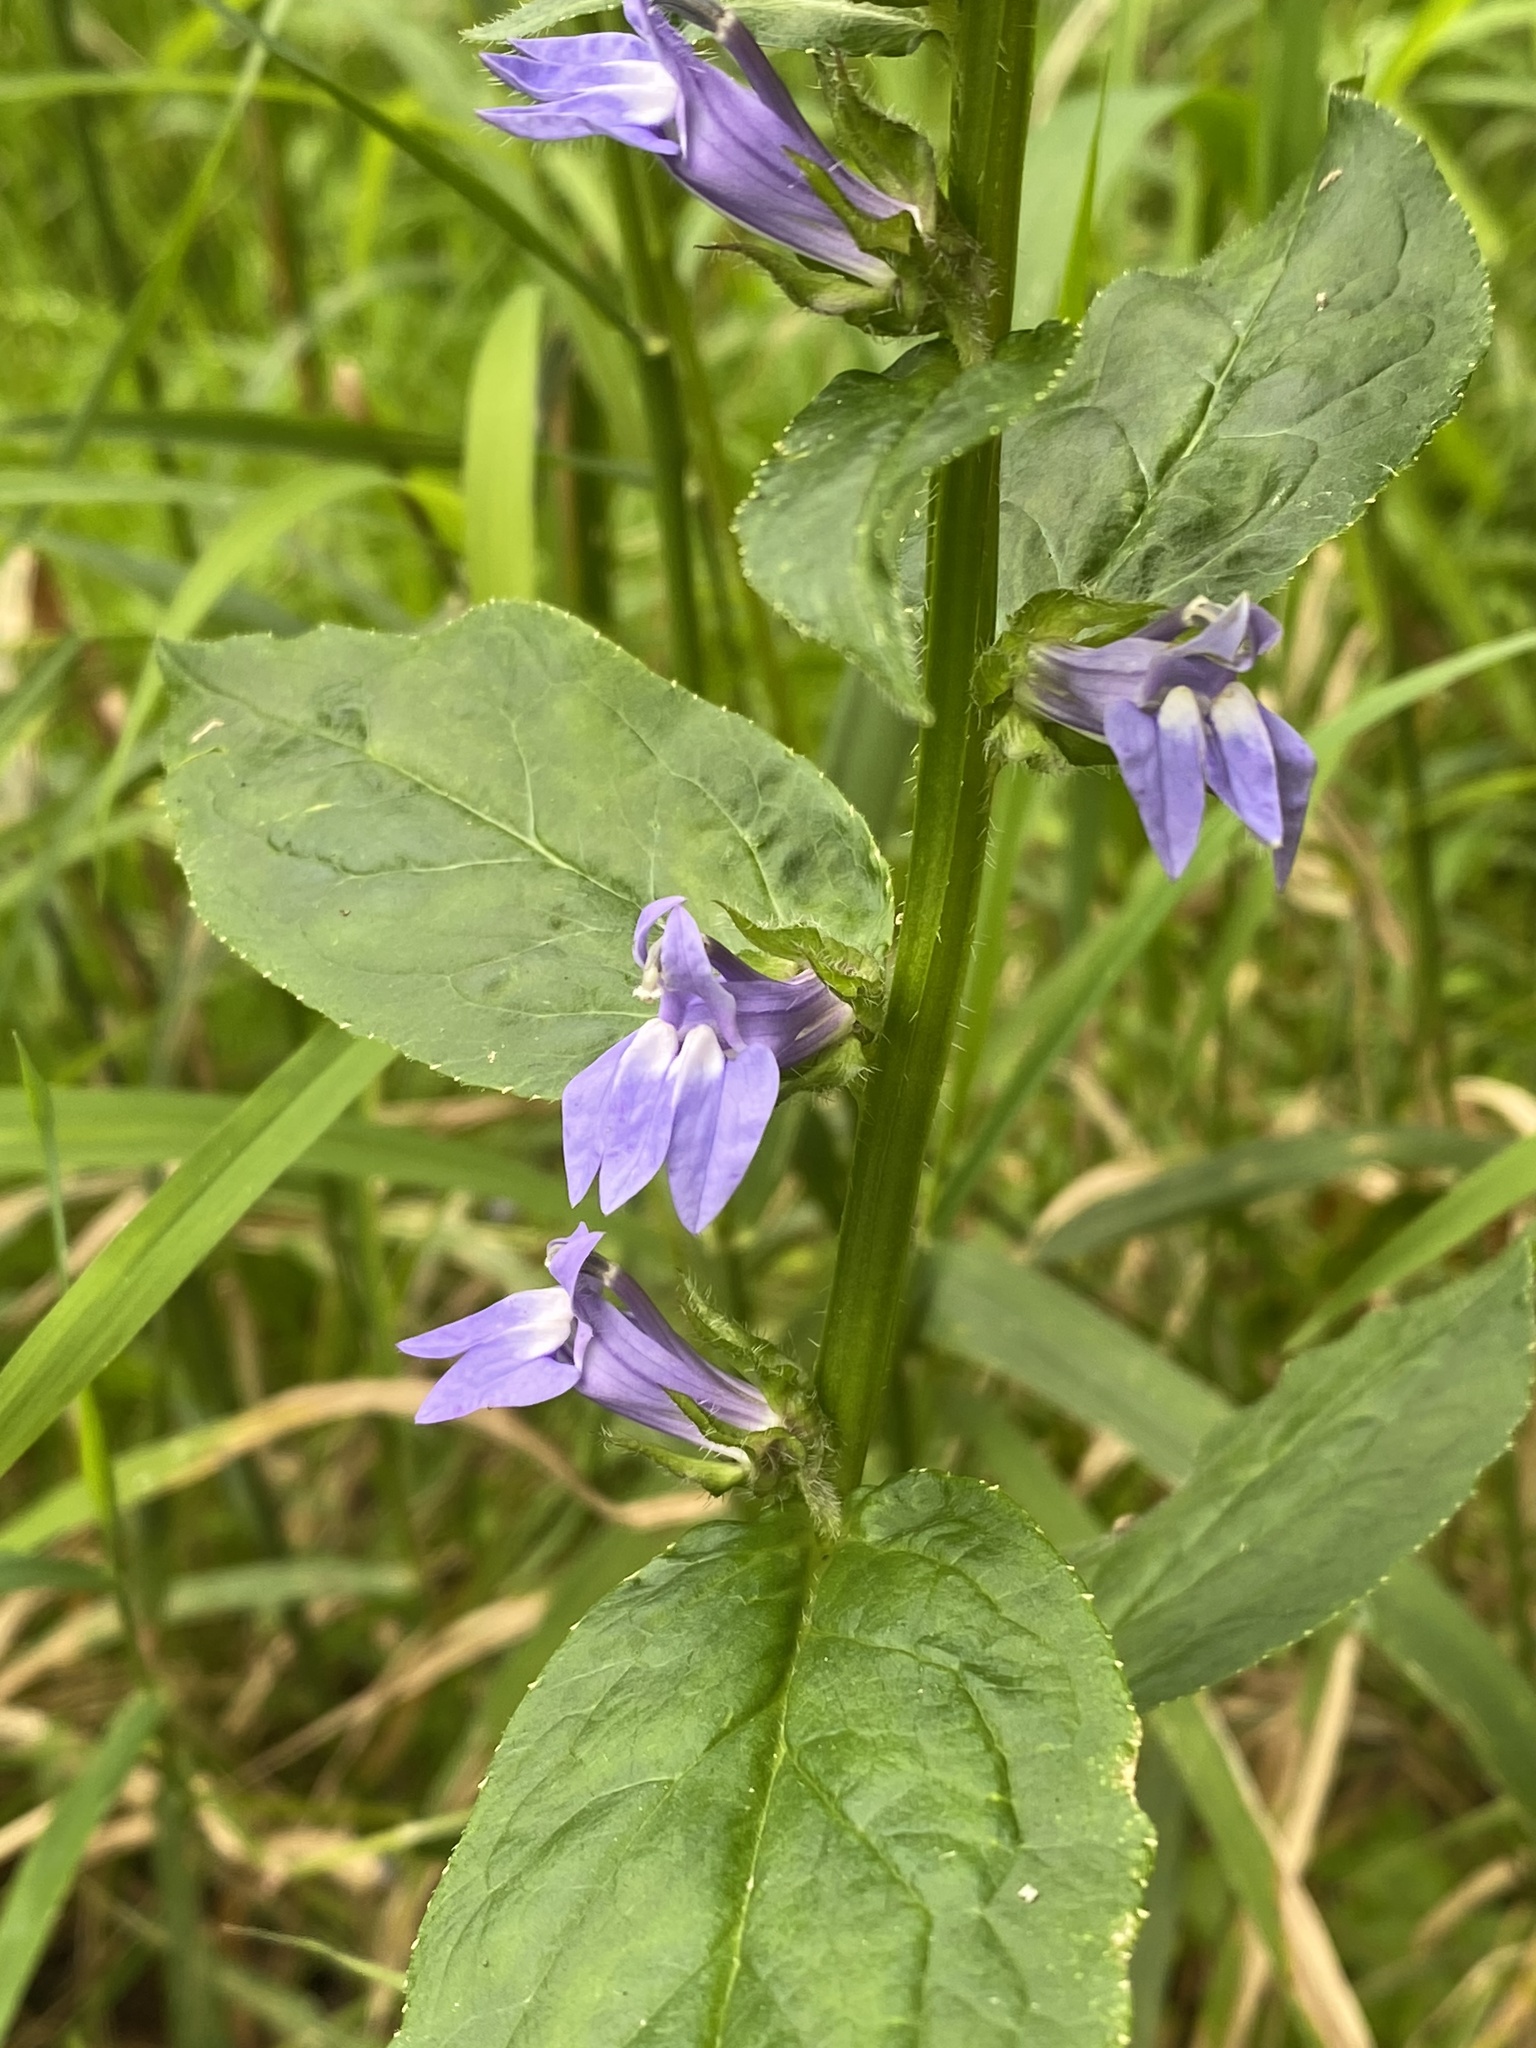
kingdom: Plantae
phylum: Tracheophyta
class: Magnoliopsida
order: Asterales
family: Campanulaceae
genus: Lobelia
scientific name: Lobelia siphilitica
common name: Great lobelia
